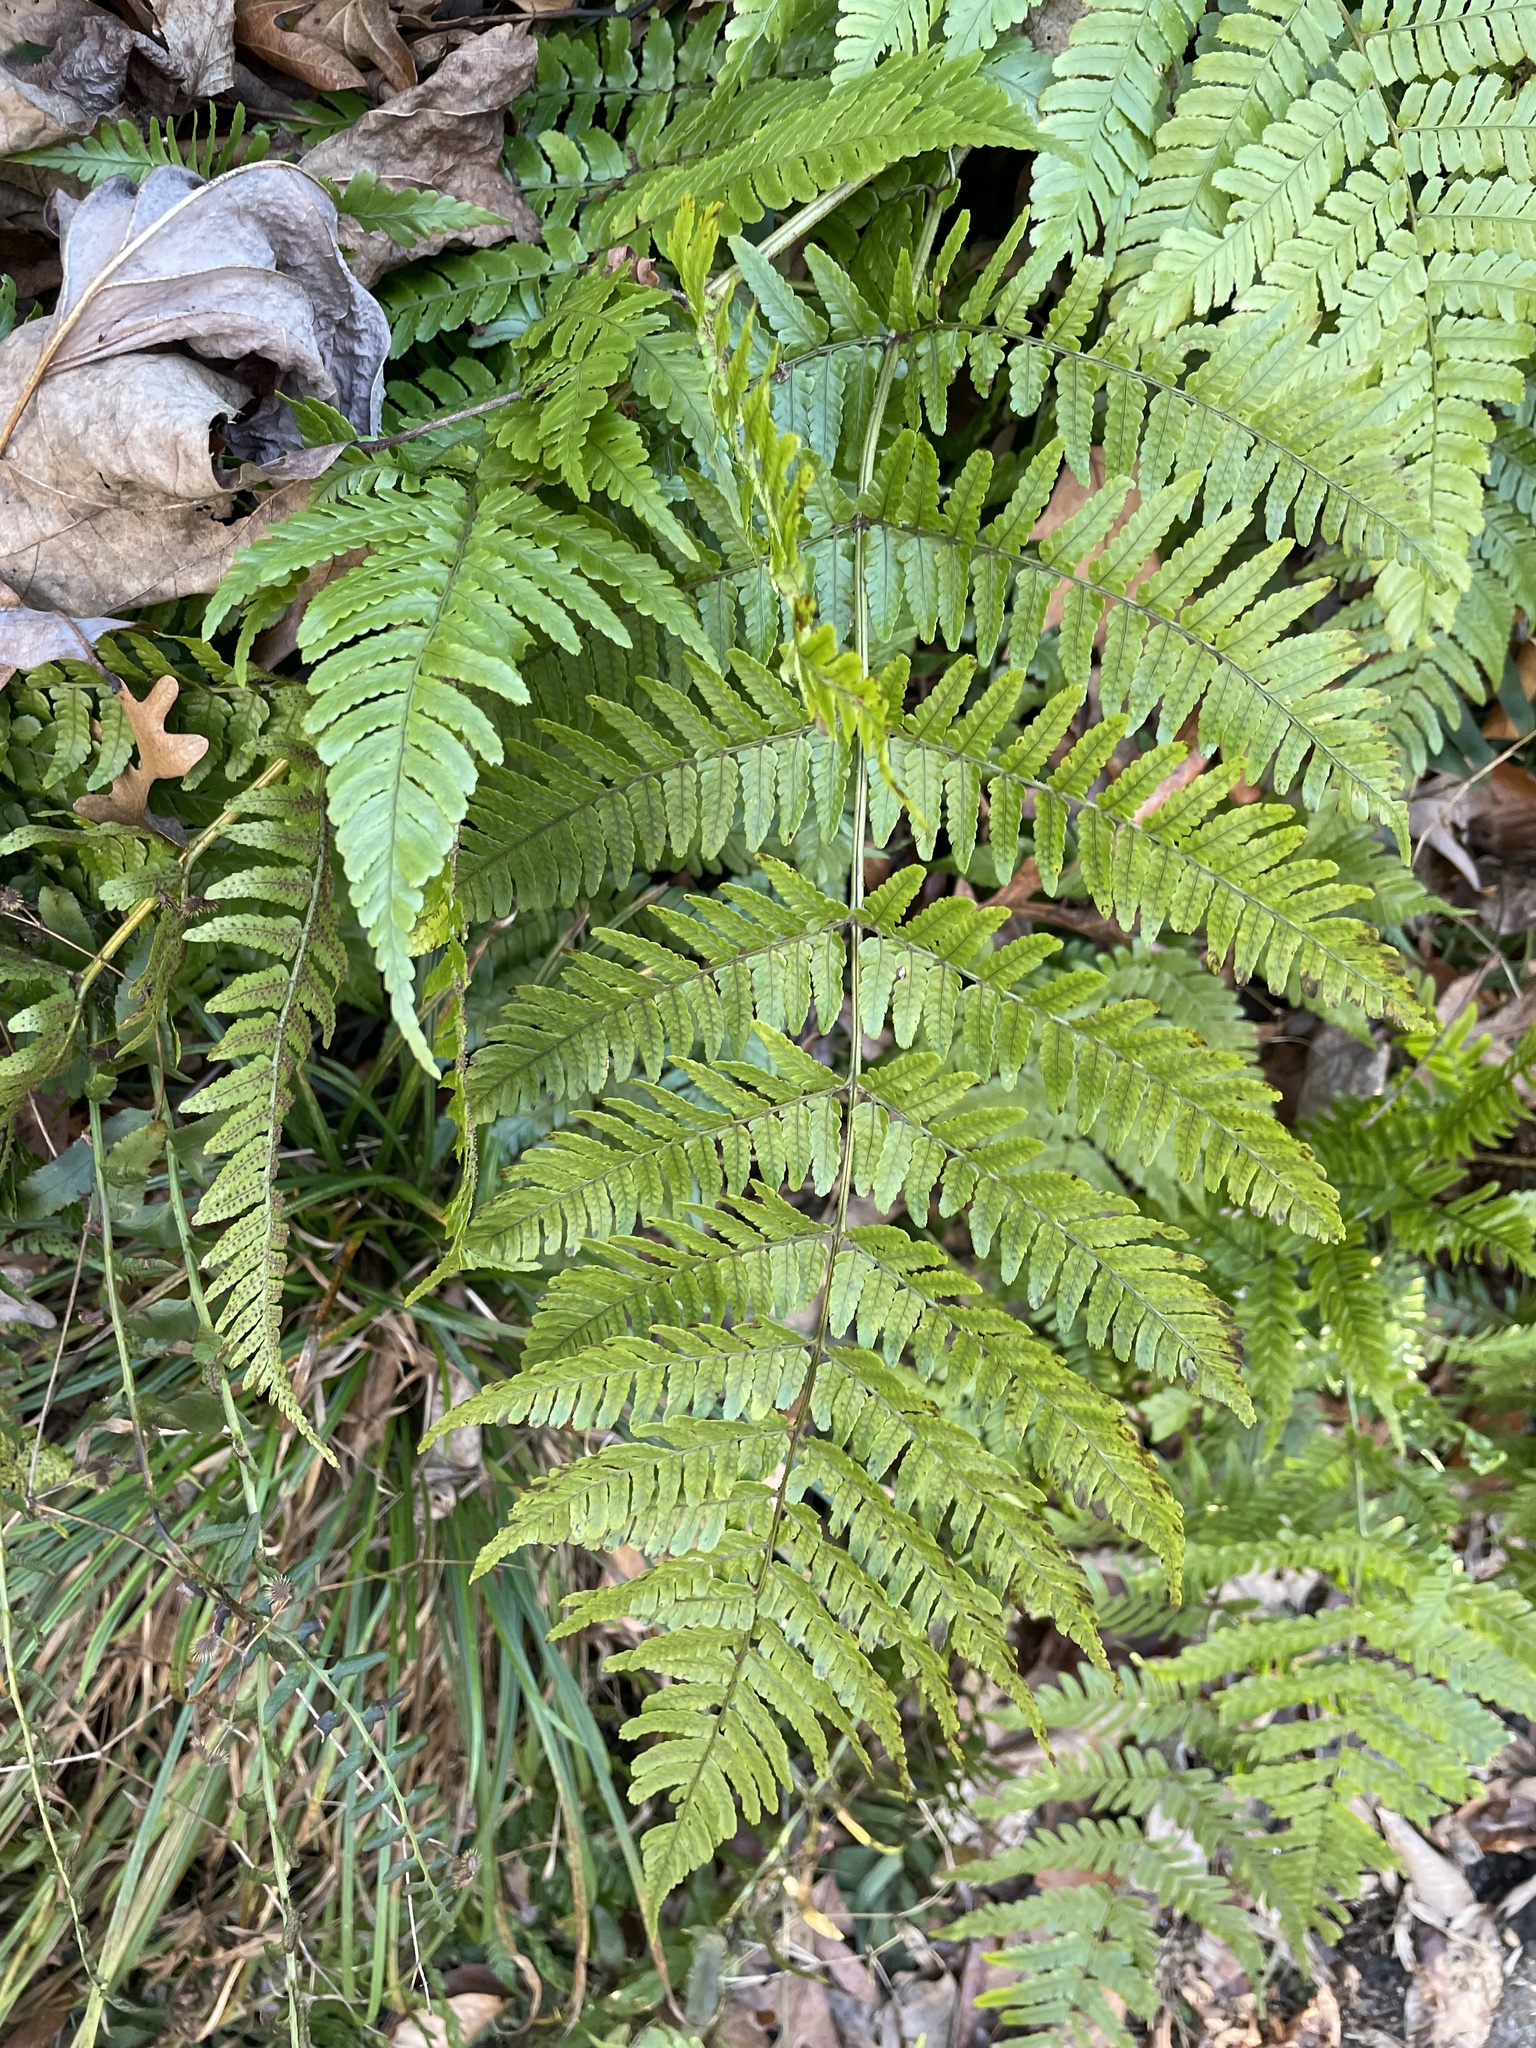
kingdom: Plantae
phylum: Tracheophyta
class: Polypodiopsida
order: Polypodiales
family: Dryopteridaceae
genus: Dryopteris
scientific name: Dryopteris erythrosora
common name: Autumn fern
